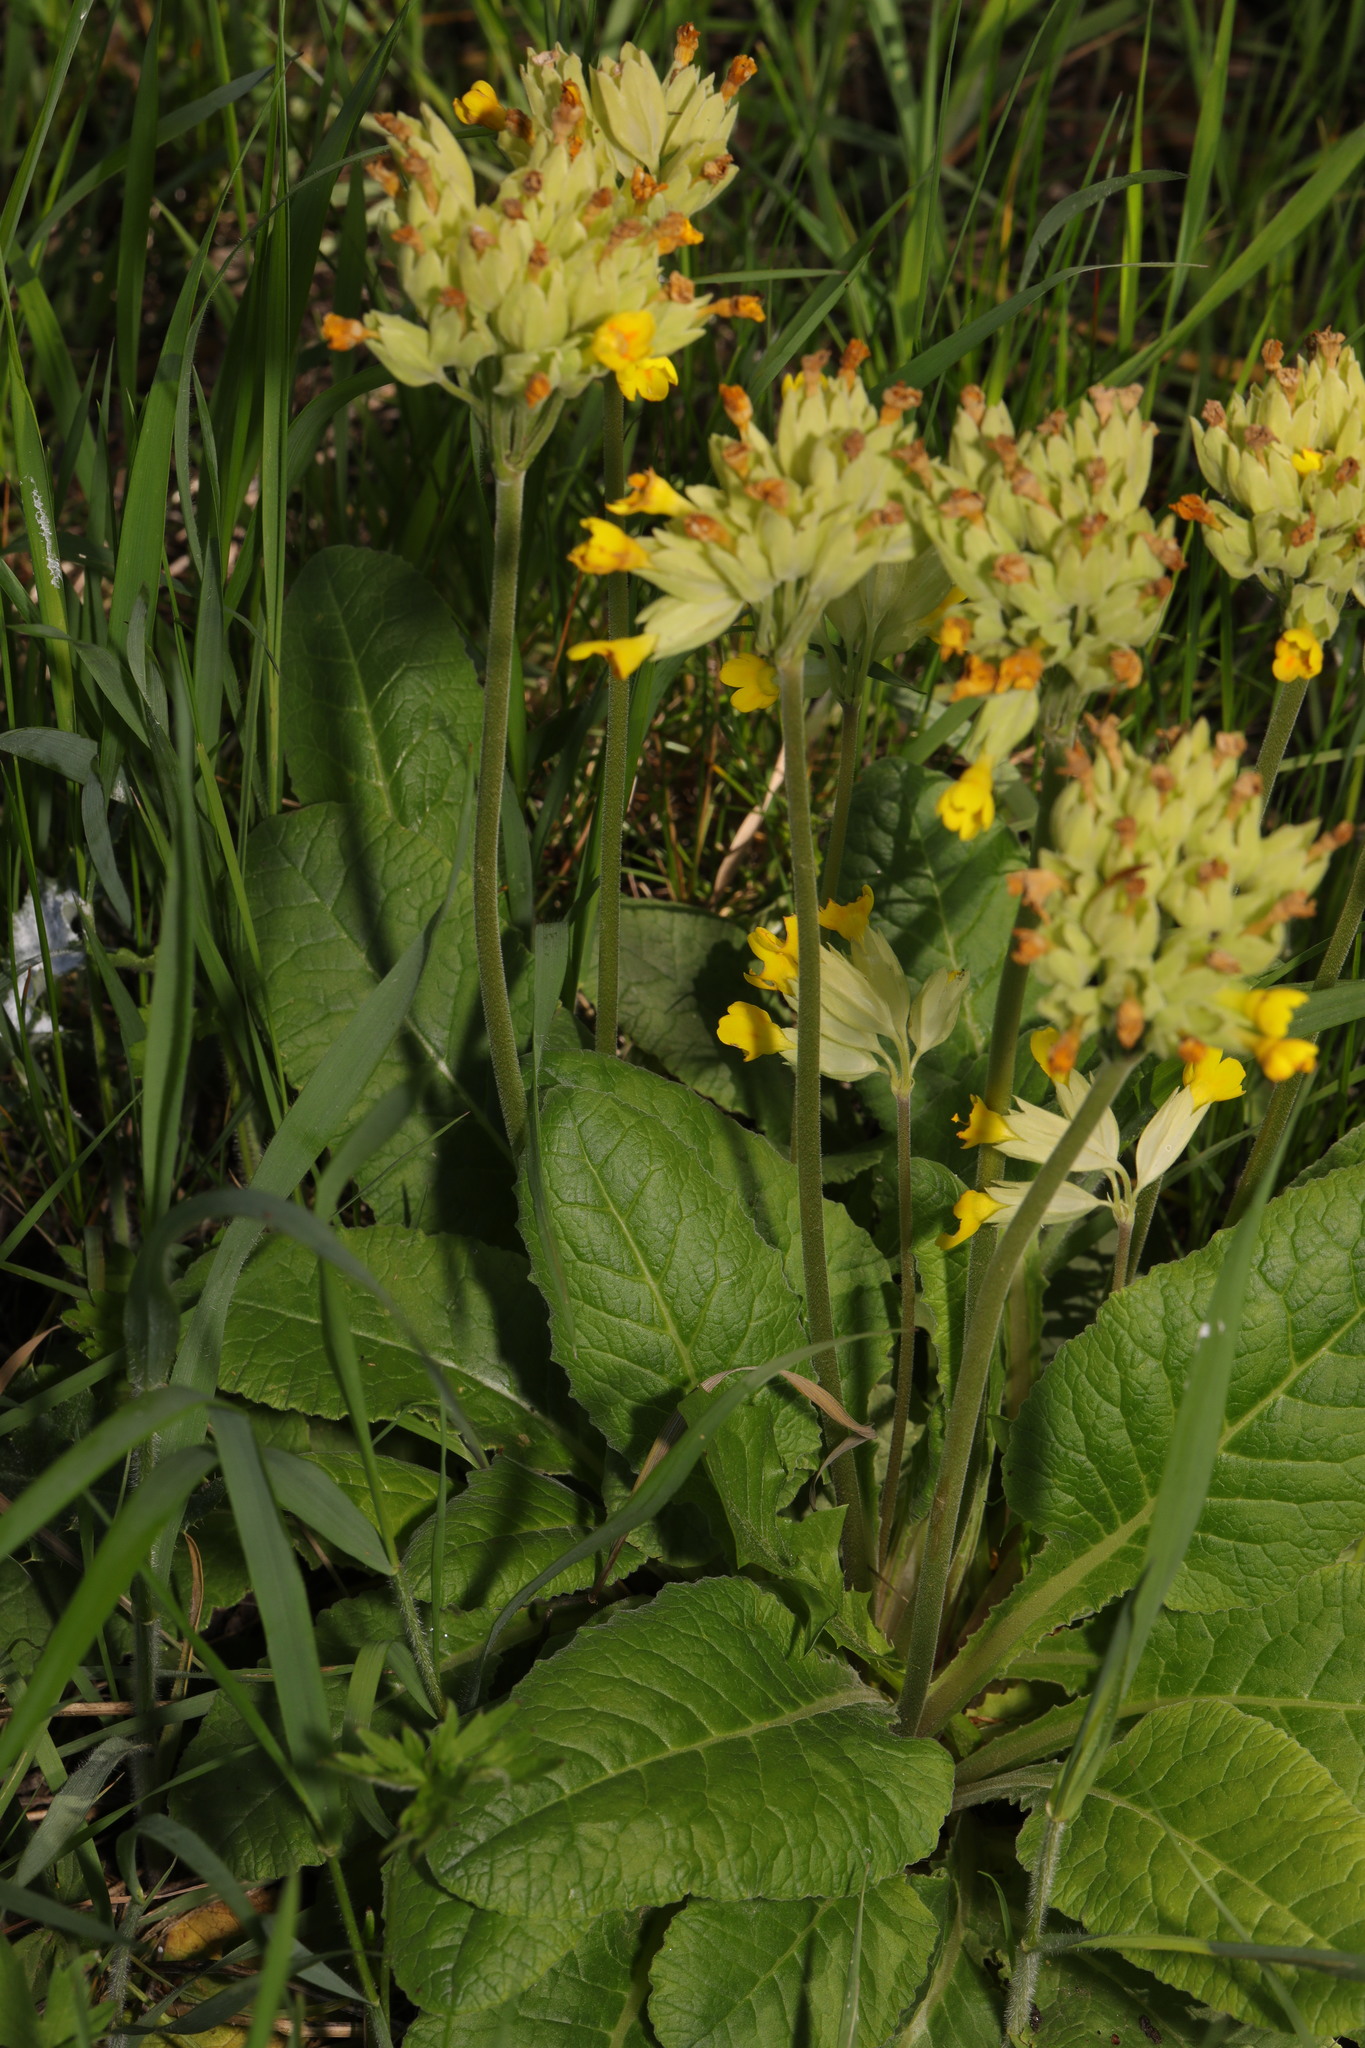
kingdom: Plantae
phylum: Tracheophyta
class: Magnoliopsida
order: Ericales
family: Primulaceae
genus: Primula
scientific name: Primula veris
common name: Cowslip
